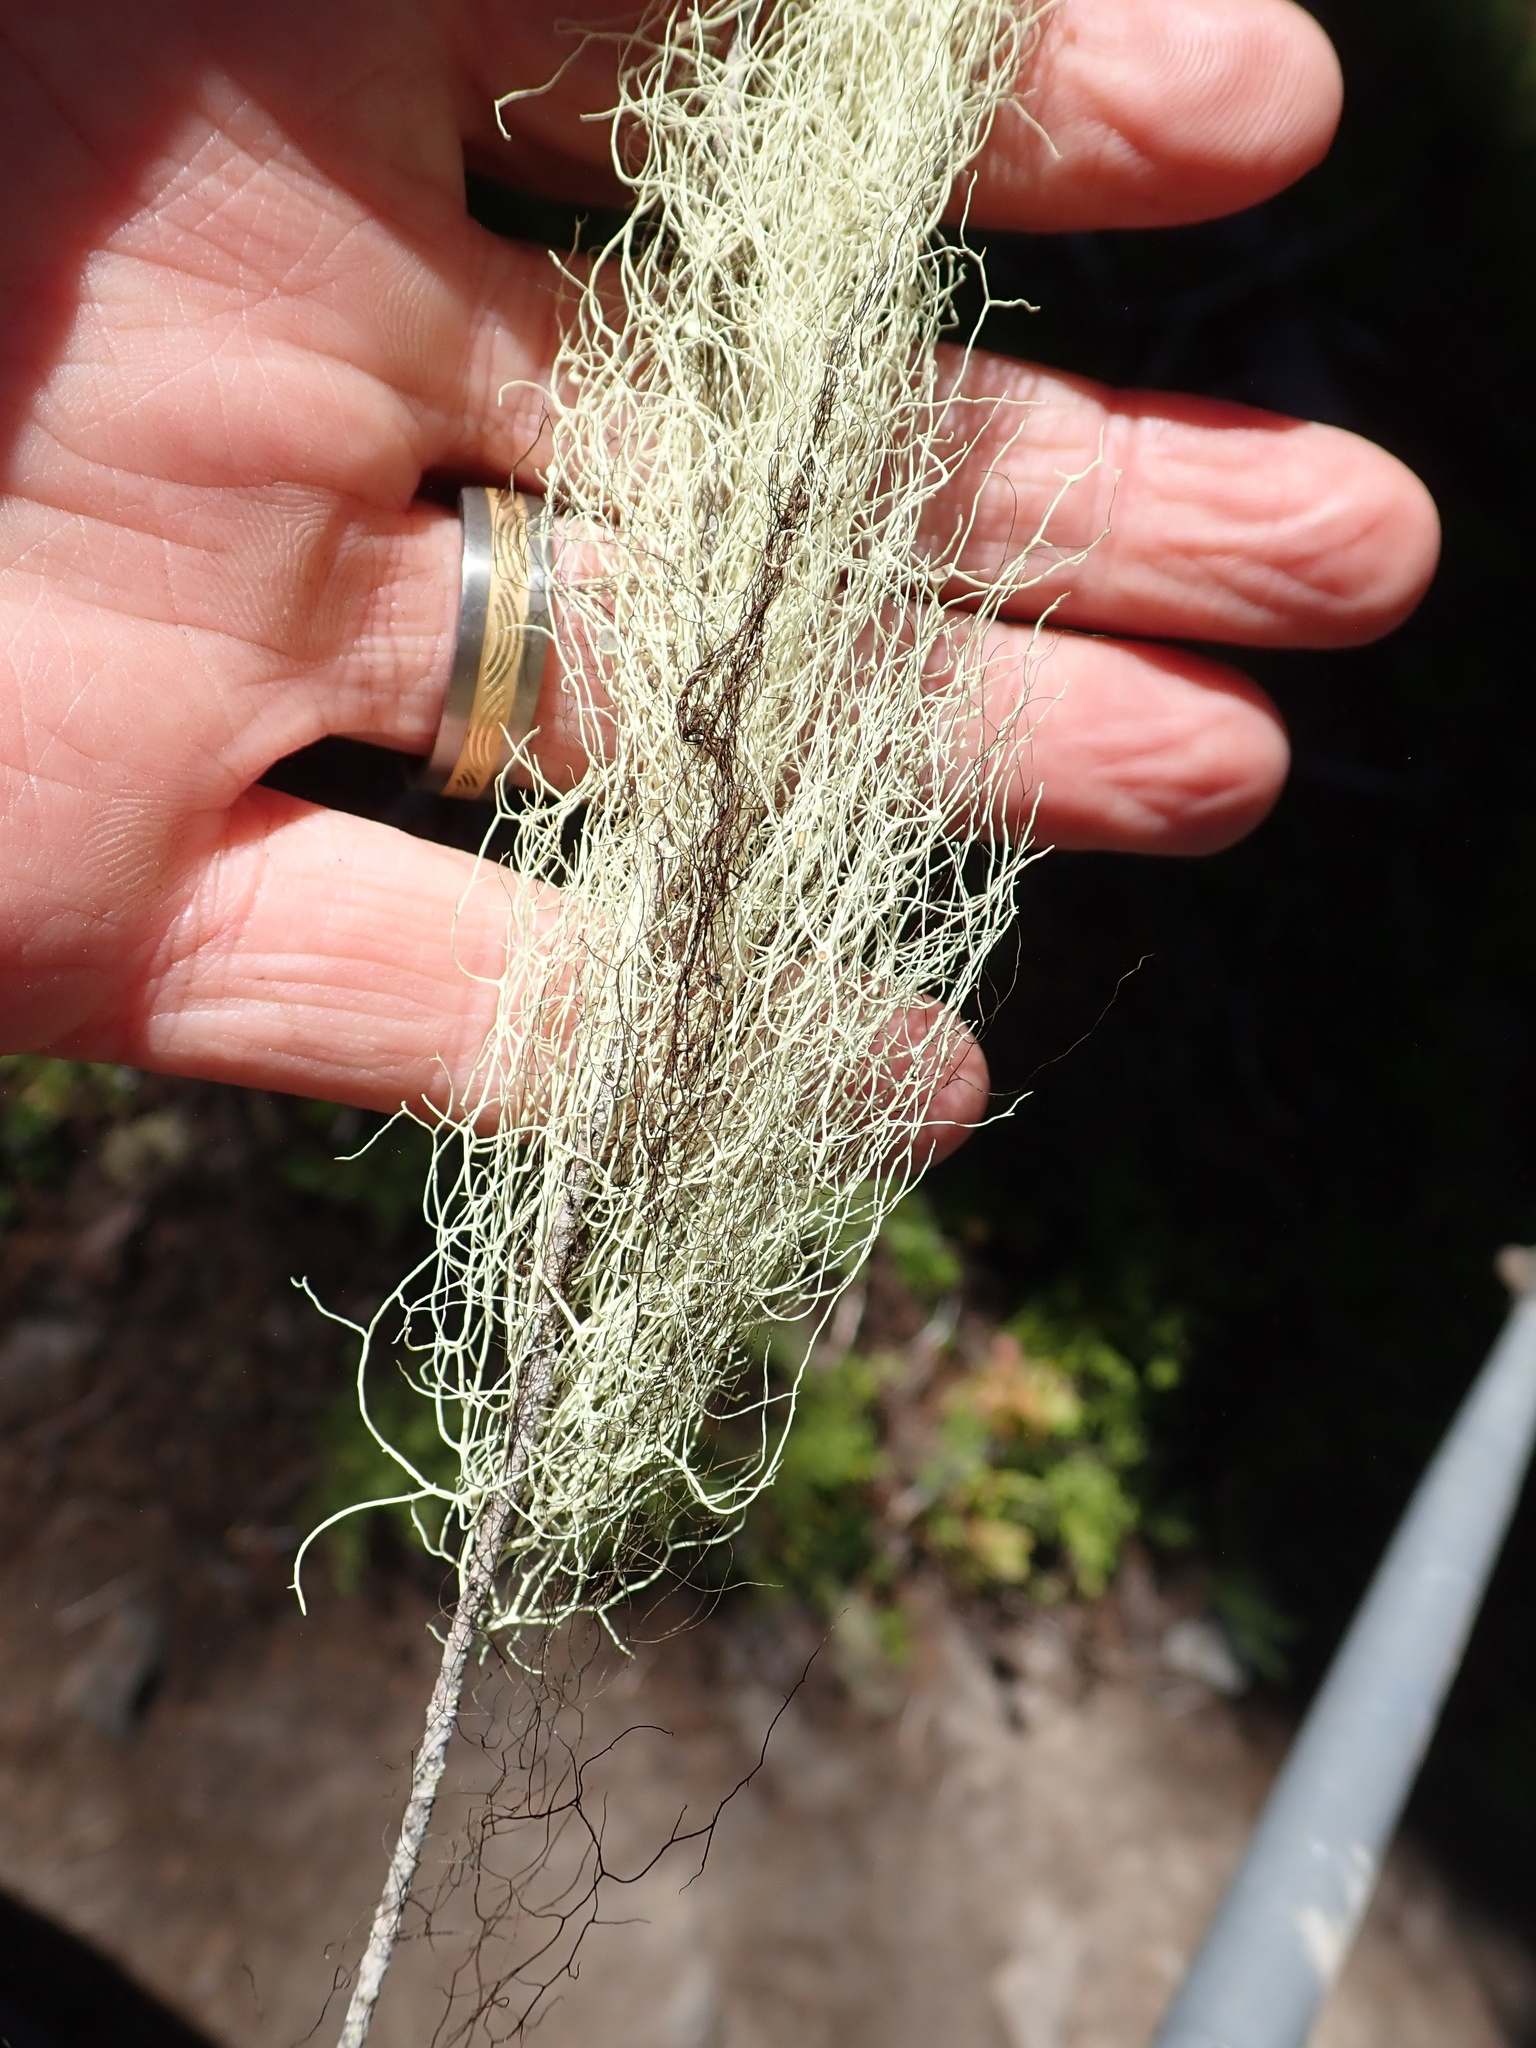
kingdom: Fungi
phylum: Ascomycota
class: Lecanoromycetes
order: Lecanorales
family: Parmeliaceae
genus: Alectoria
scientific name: Alectoria sarmentosa
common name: Witch's hair
